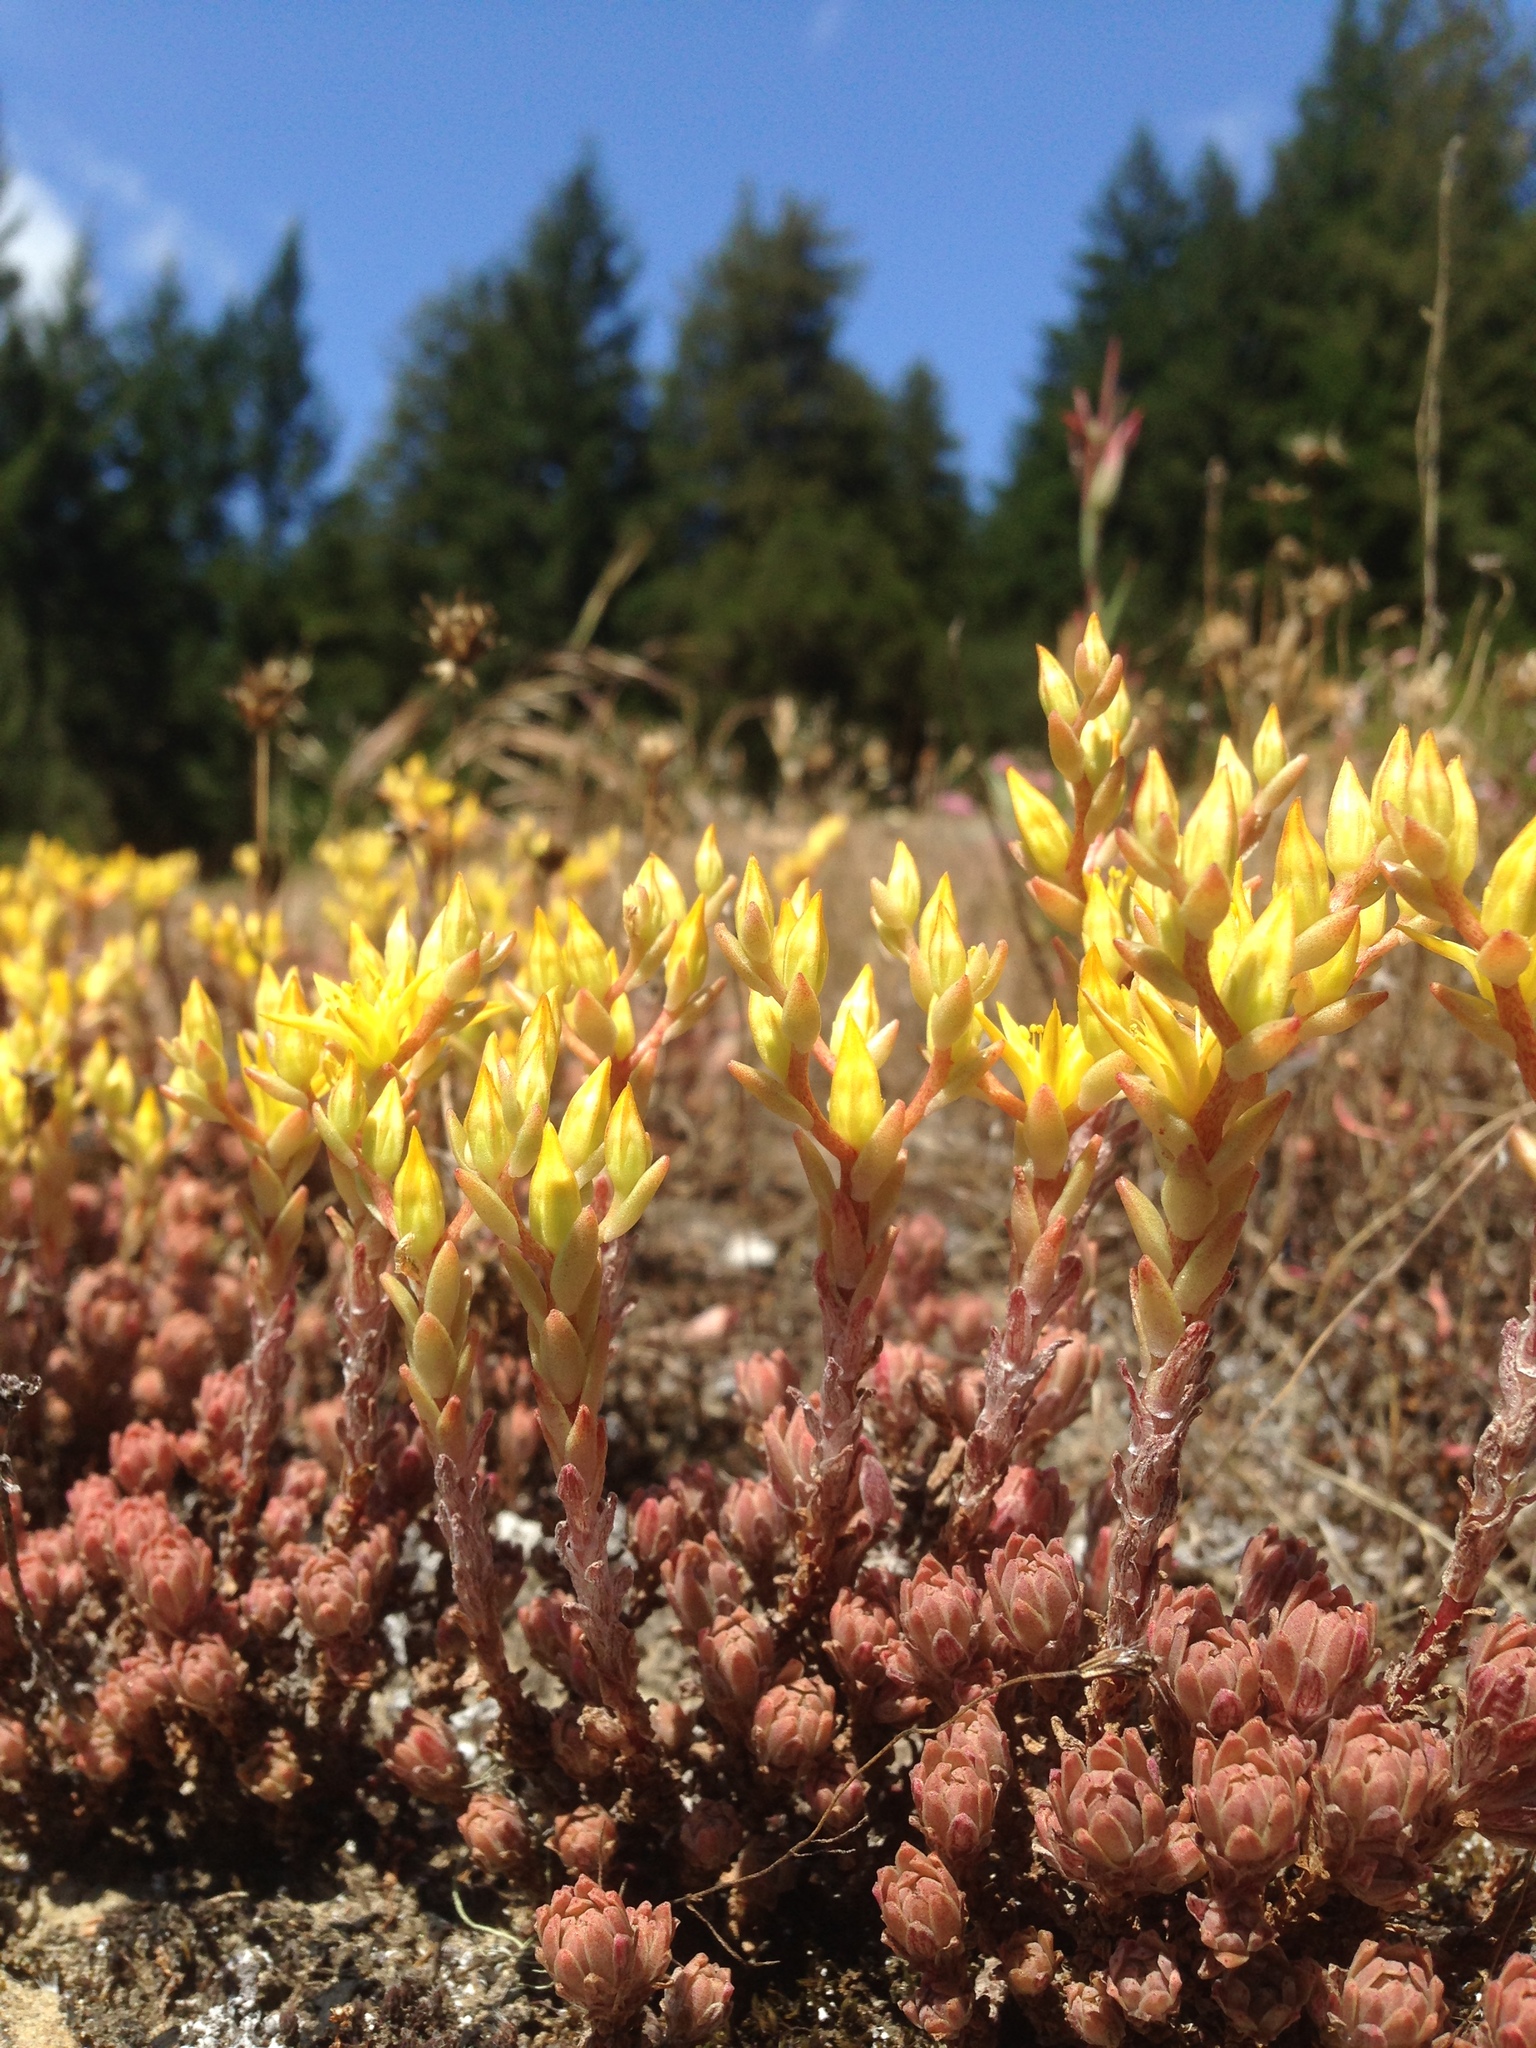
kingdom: Plantae
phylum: Tracheophyta
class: Magnoliopsida
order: Saxifragales
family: Crassulaceae
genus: Sedum
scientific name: Sedum radiatum
